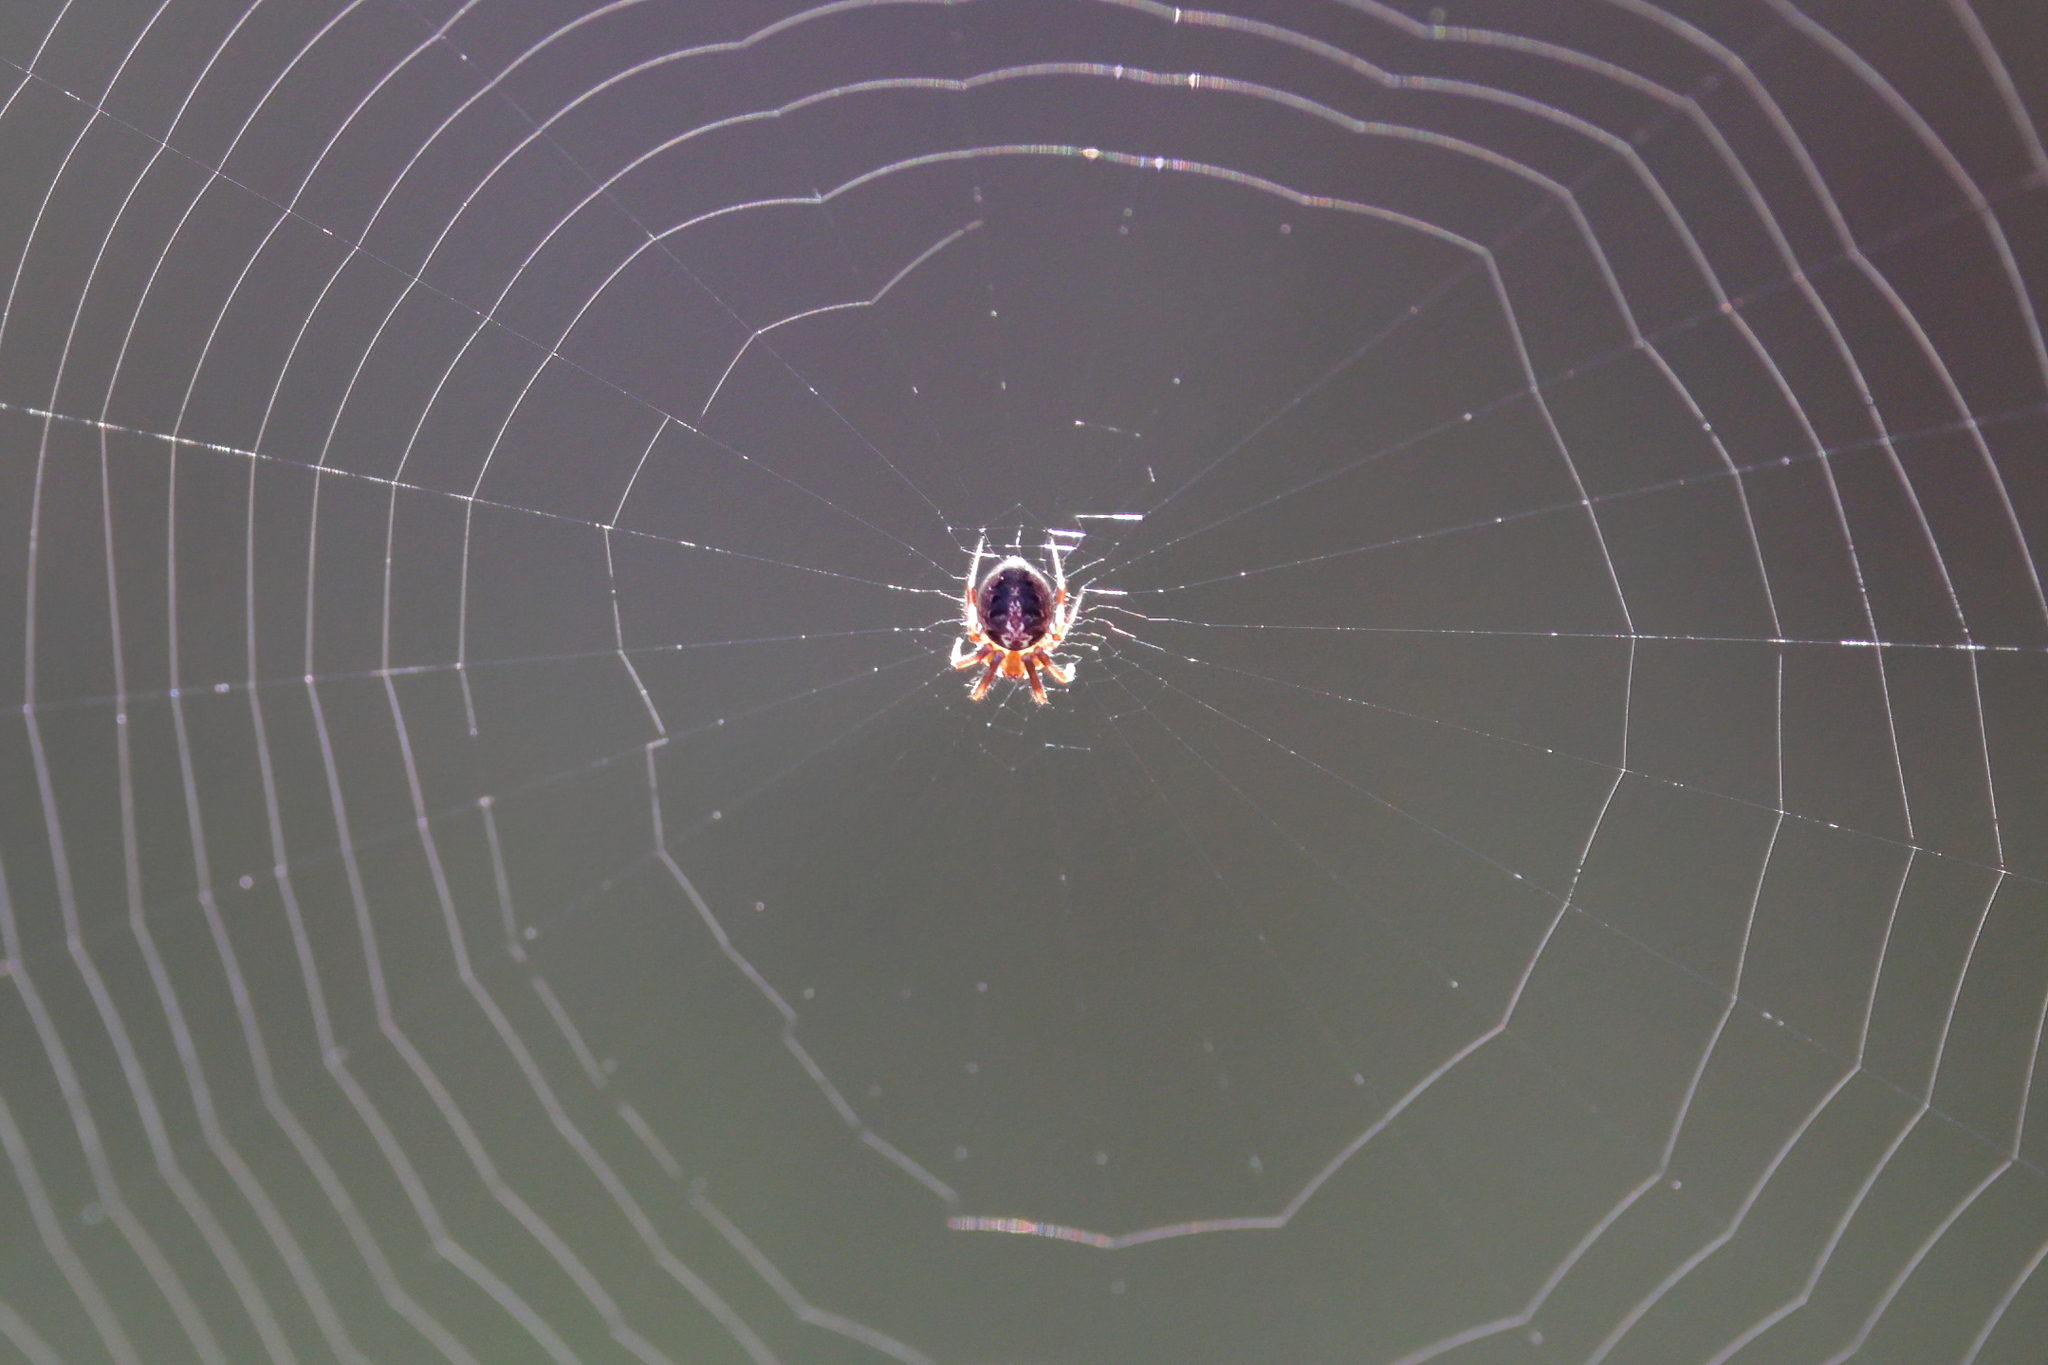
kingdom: Animalia
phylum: Arthropoda
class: Arachnida
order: Araneae
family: Araneidae
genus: Neoscona
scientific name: Neoscona arabesca
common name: Orb weavers
